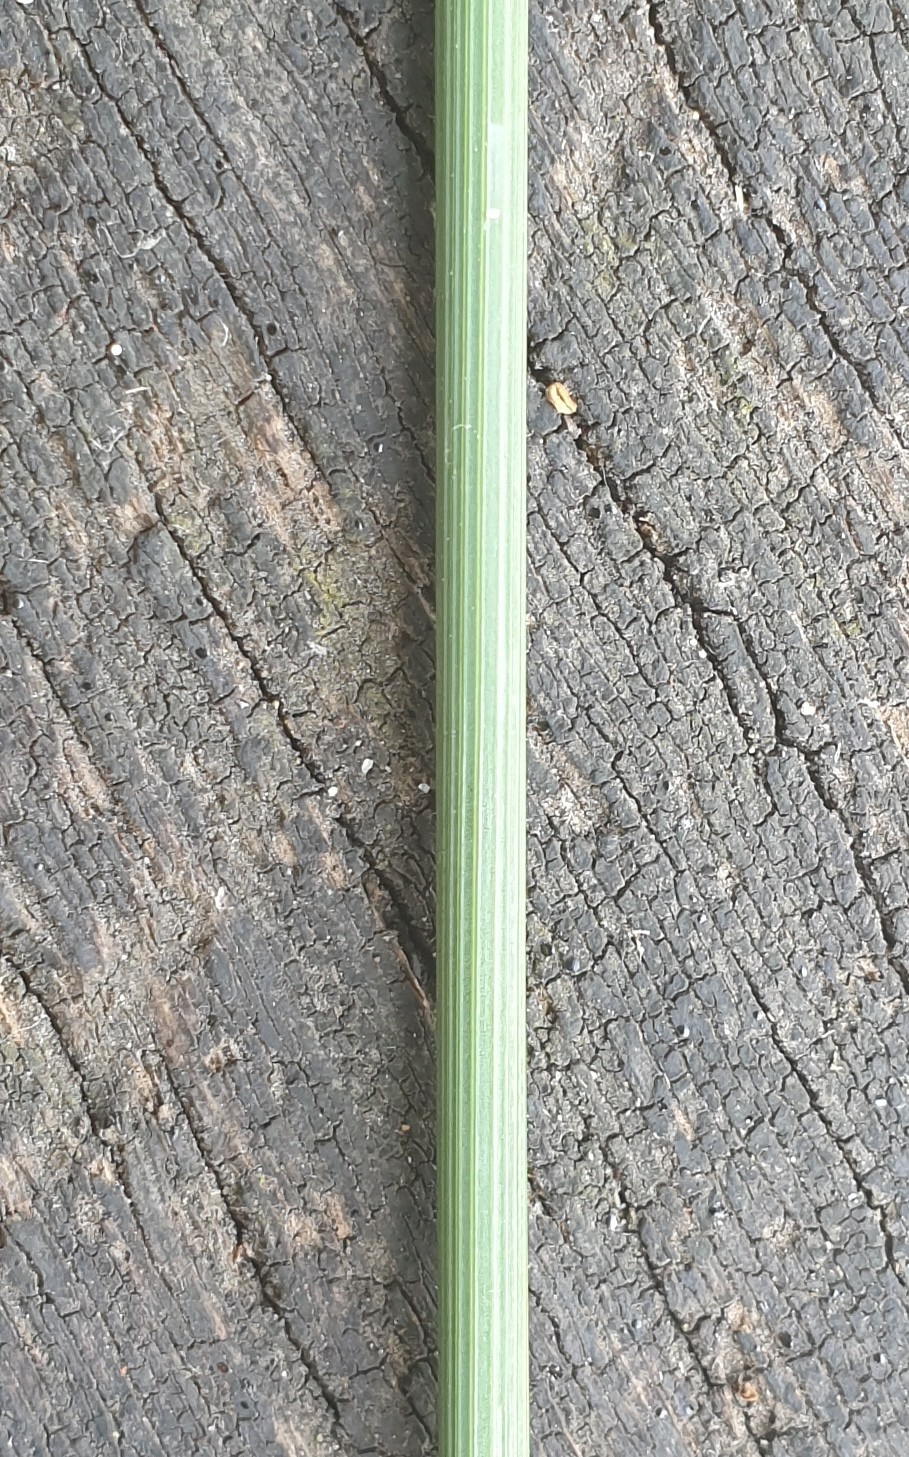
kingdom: Plantae
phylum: Tracheophyta
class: Liliopsida
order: Poales
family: Juncaceae
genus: Juncus
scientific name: Juncus inflexus
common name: Hard rush
